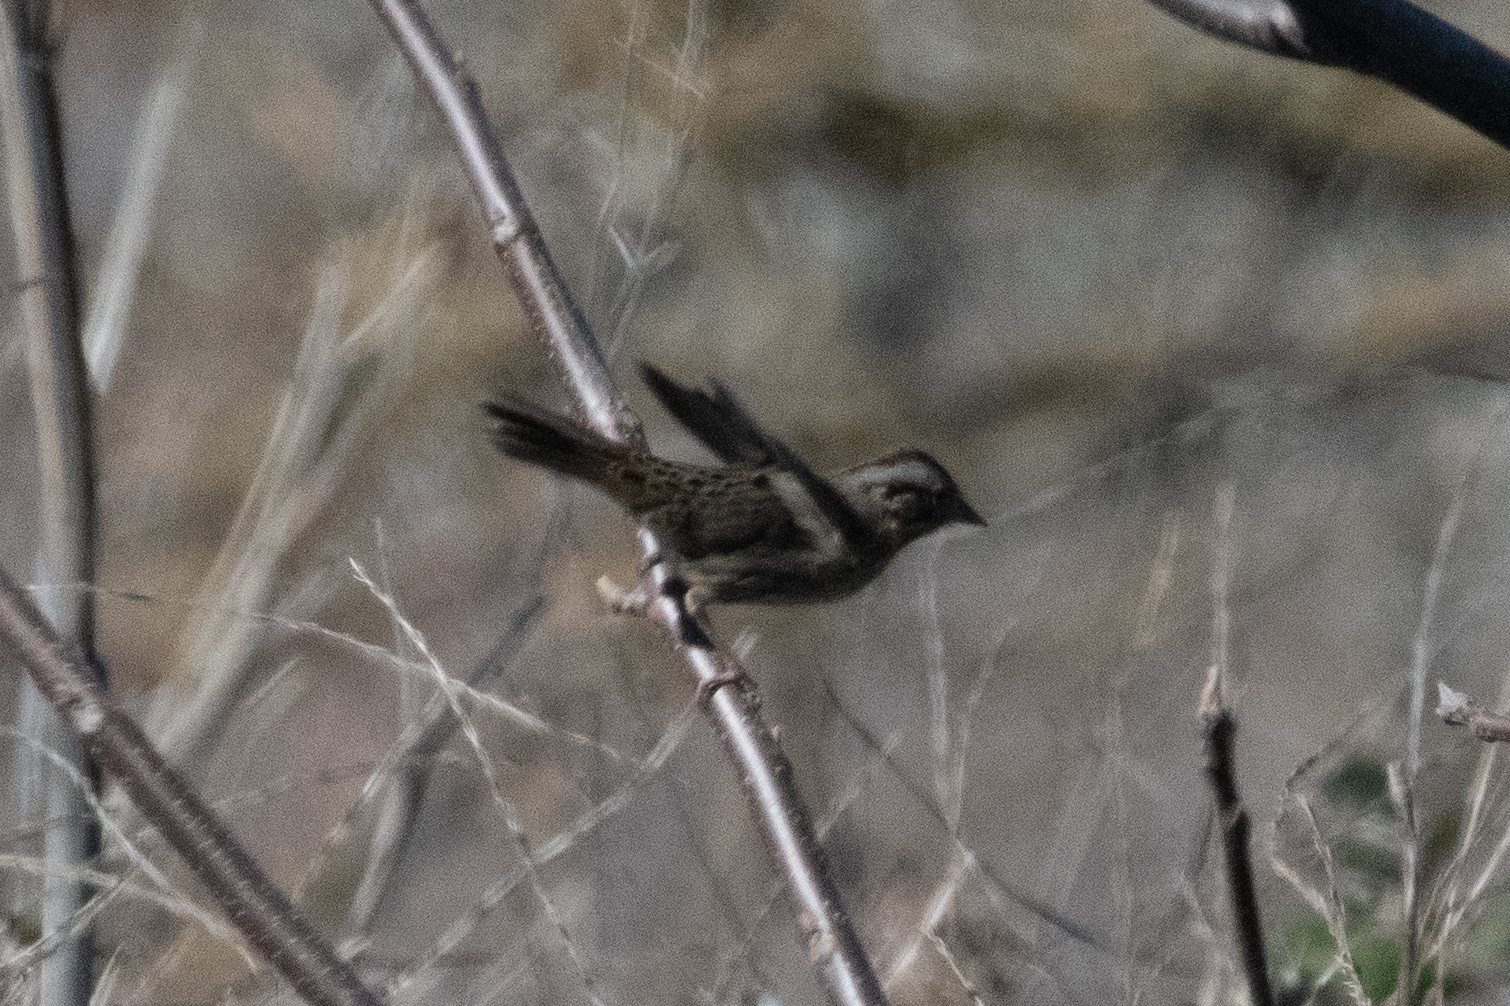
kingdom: Animalia
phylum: Chordata
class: Aves
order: Passeriformes
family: Passerellidae
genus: Melospiza
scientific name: Melospiza lincolnii
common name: Lincoln's sparrow
